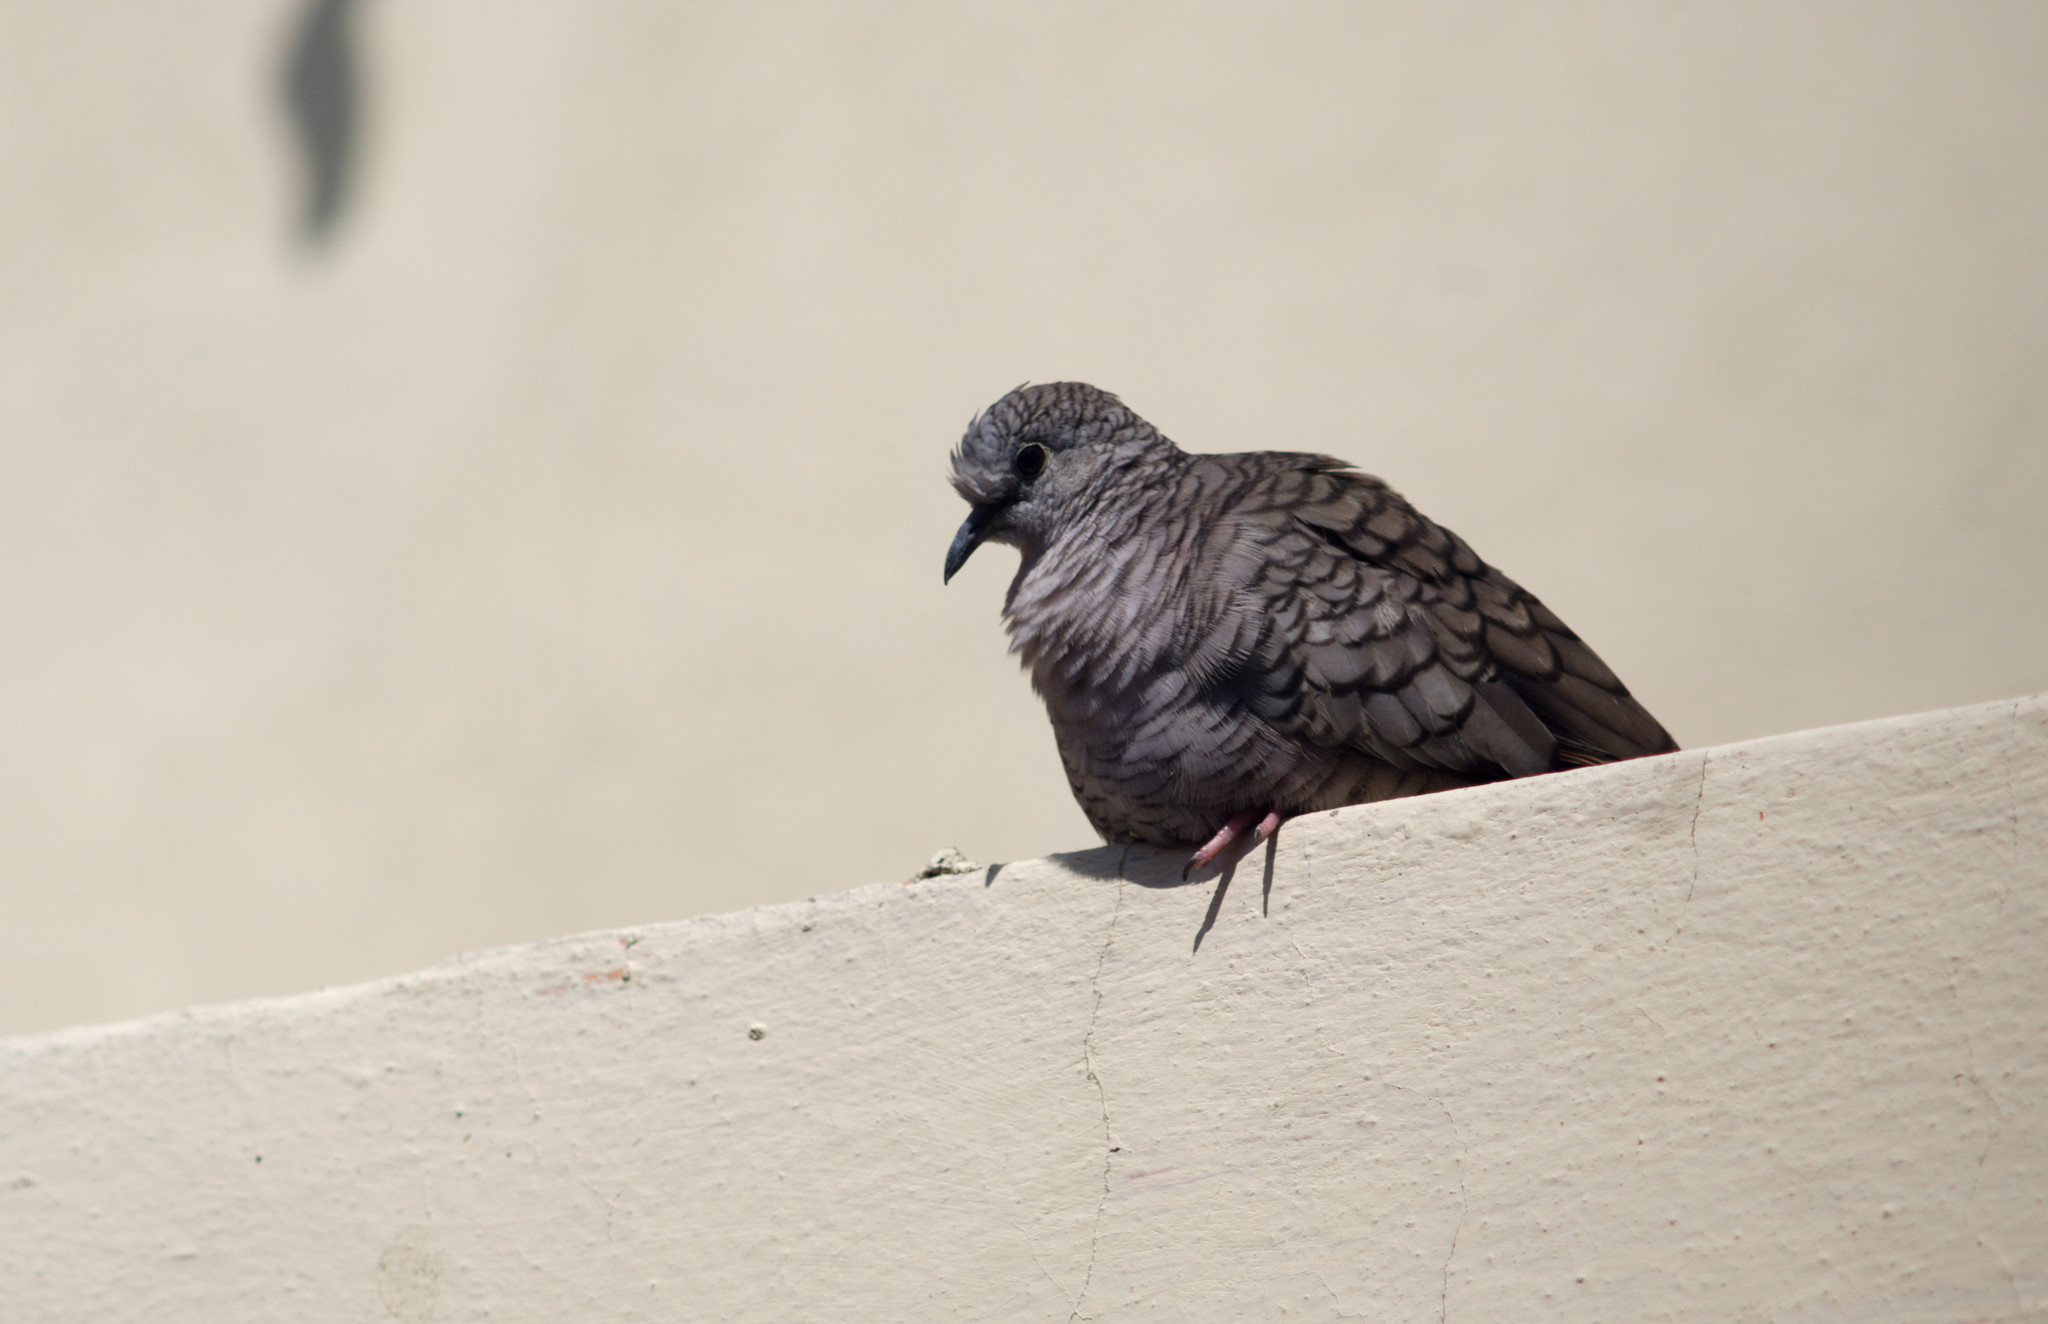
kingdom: Animalia
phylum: Chordata
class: Aves
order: Columbiformes
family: Columbidae
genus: Columbina
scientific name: Columbina inca
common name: Inca dove
